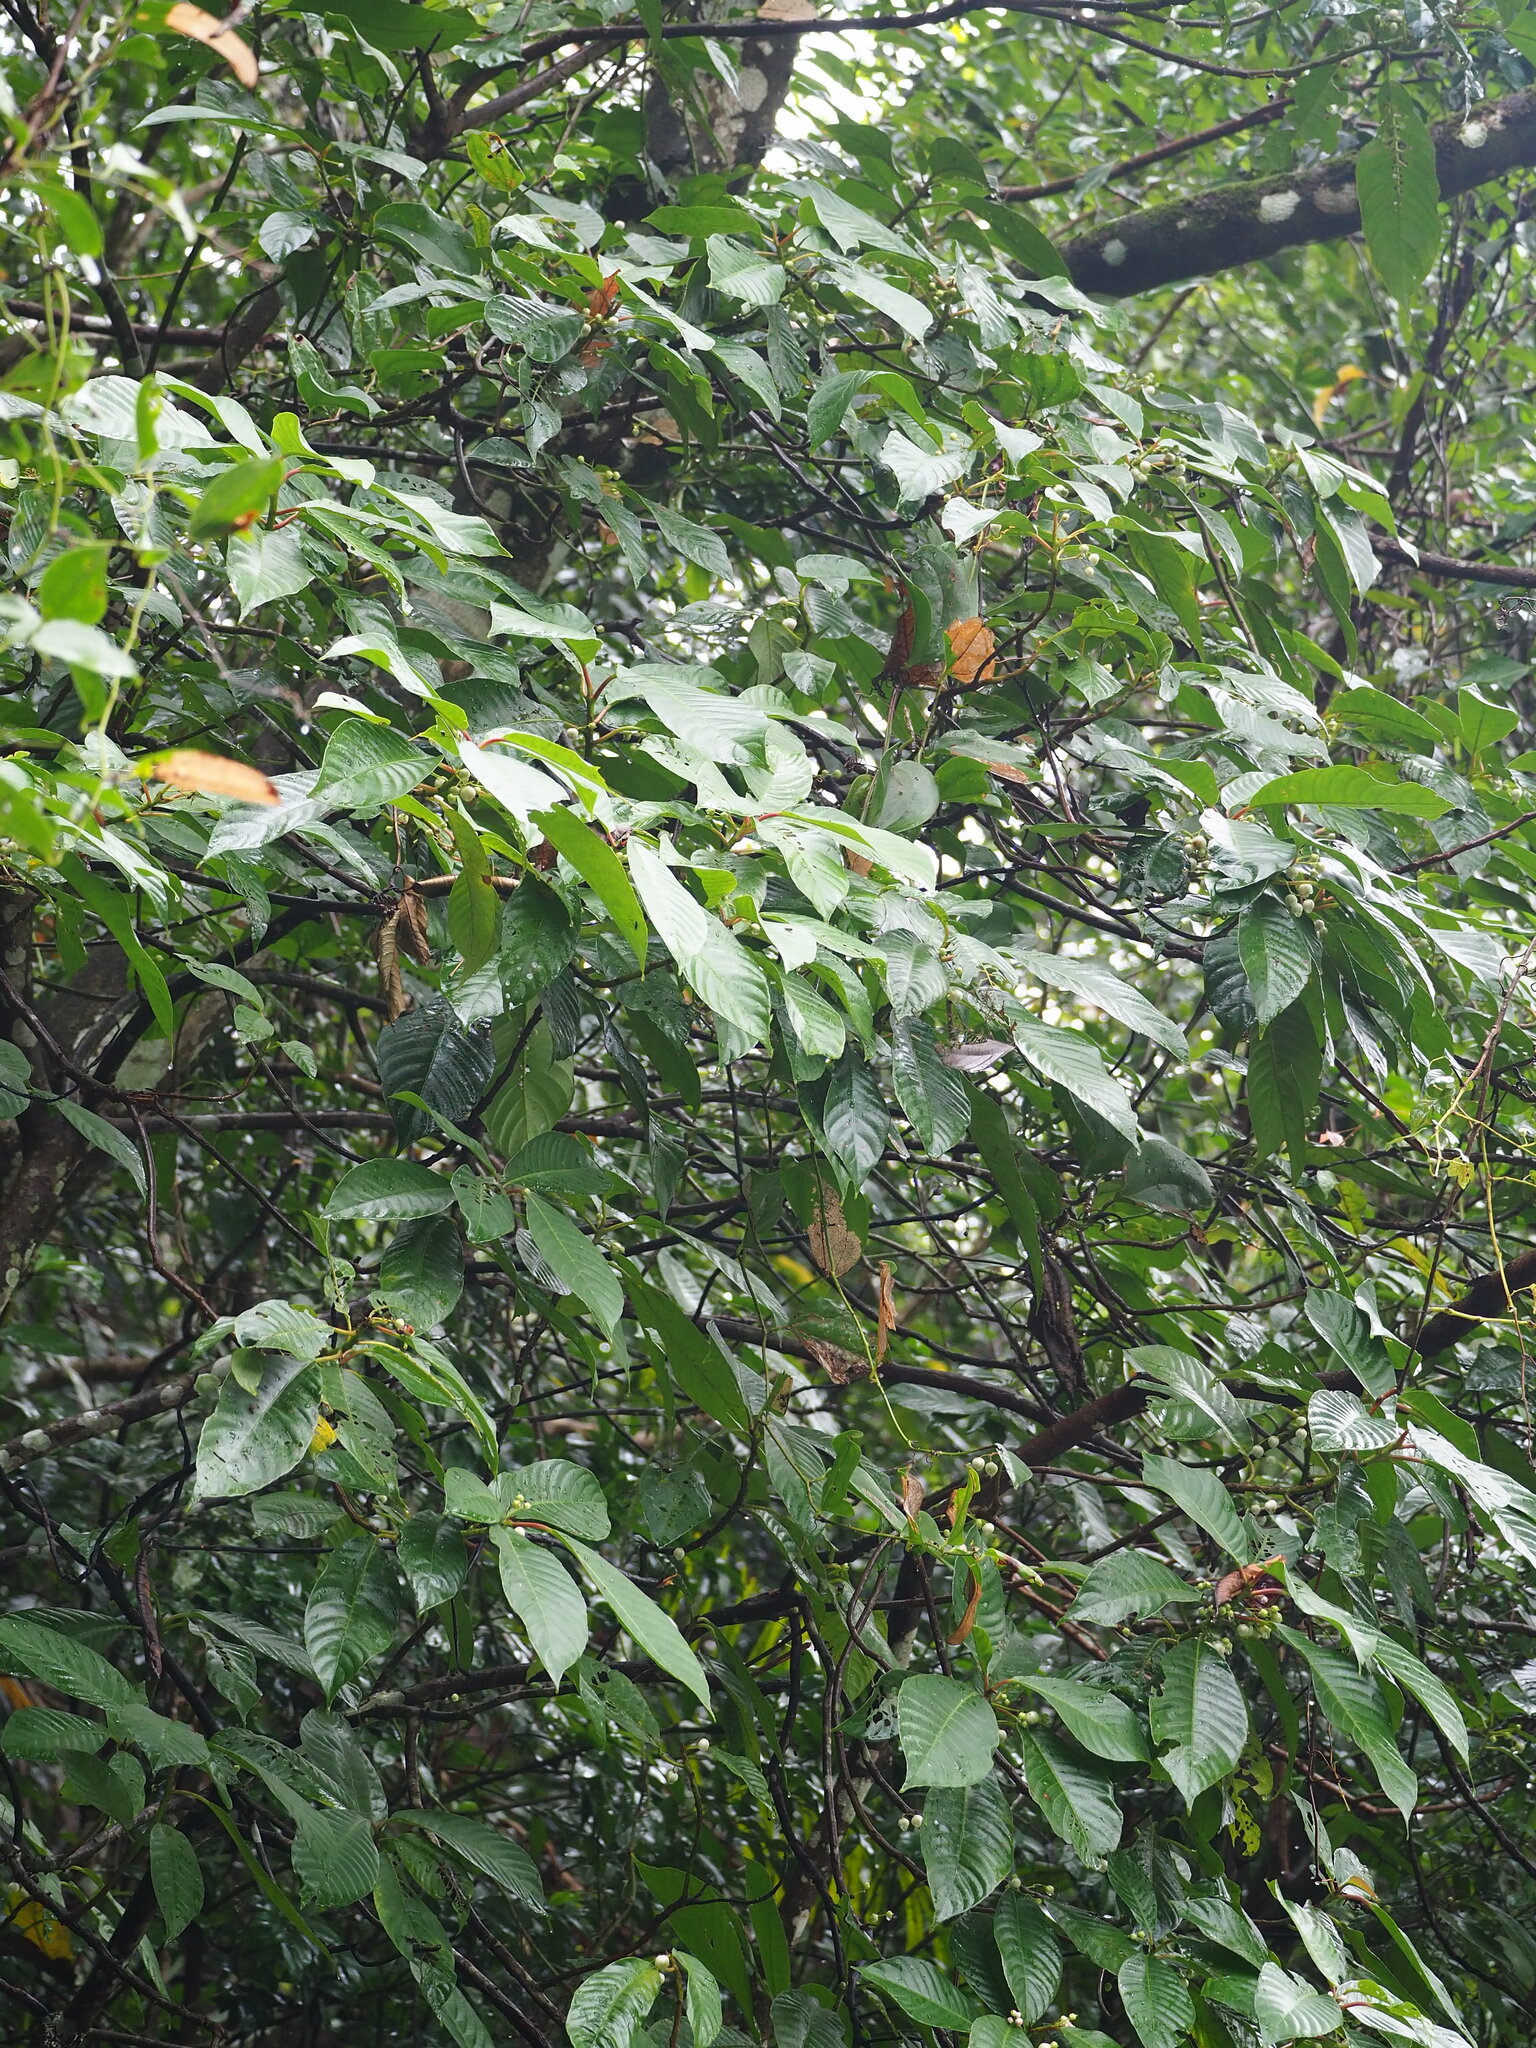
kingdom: Plantae
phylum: Tracheophyta
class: Magnoliopsida
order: Ericales
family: Actinidiaceae
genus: Saurauia
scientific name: Saurauia tristyla
